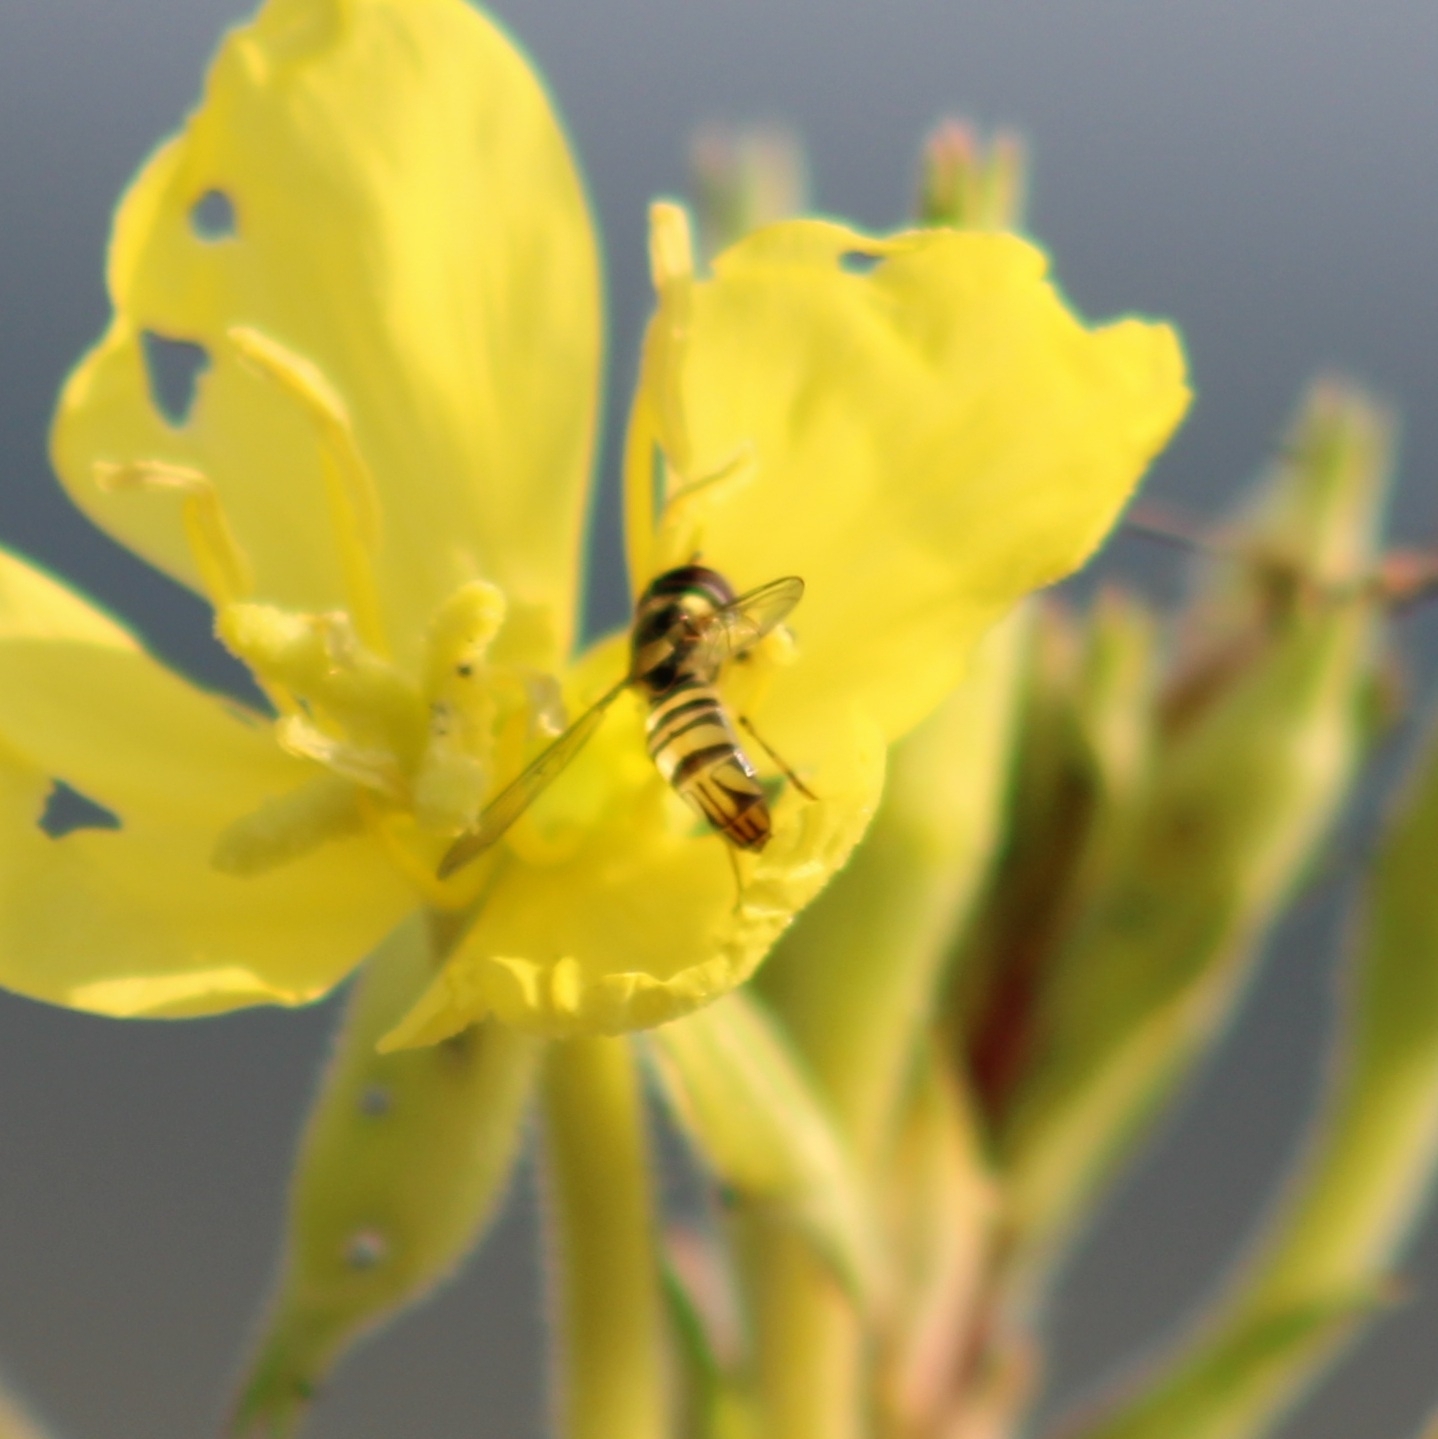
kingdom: Animalia
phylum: Arthropoda
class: Insecta
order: Diptera
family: Syrphidae
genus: Allograpta
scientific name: Allograpta obliqua
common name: Common oblique syrphid
